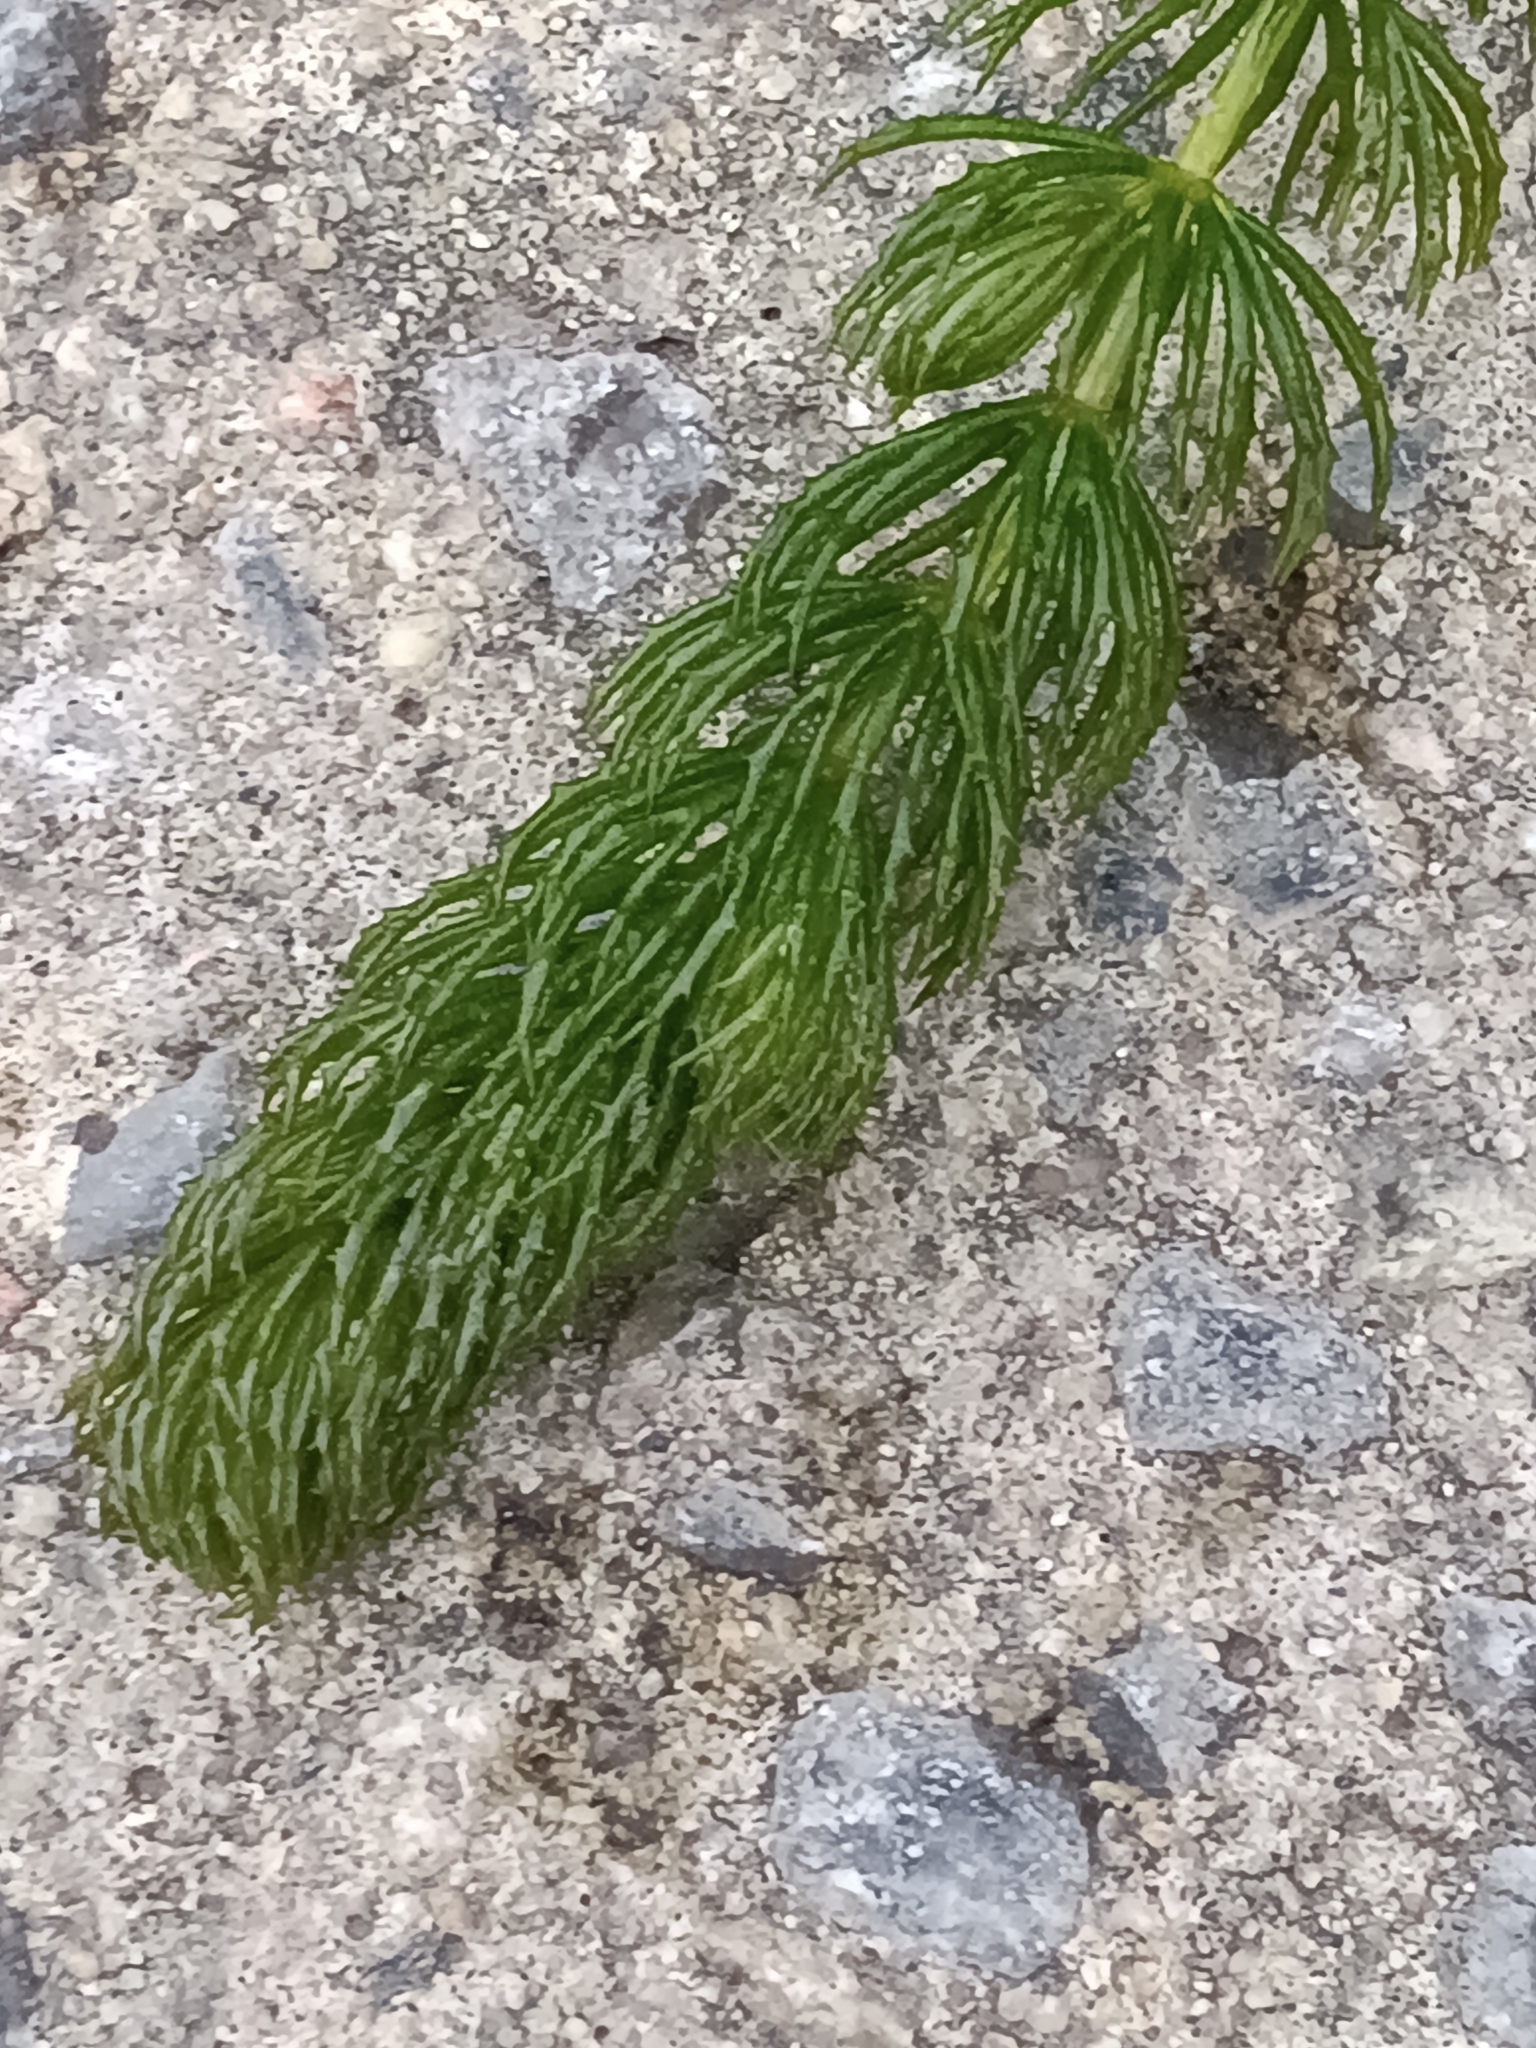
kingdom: Plantae
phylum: Tracheophyta
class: Magnoliopsida
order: Ceratophyllales
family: Ceratophyllaceae
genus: Ceratophyllum
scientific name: Ceratophyllum demersum
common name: Rigid hornwort
